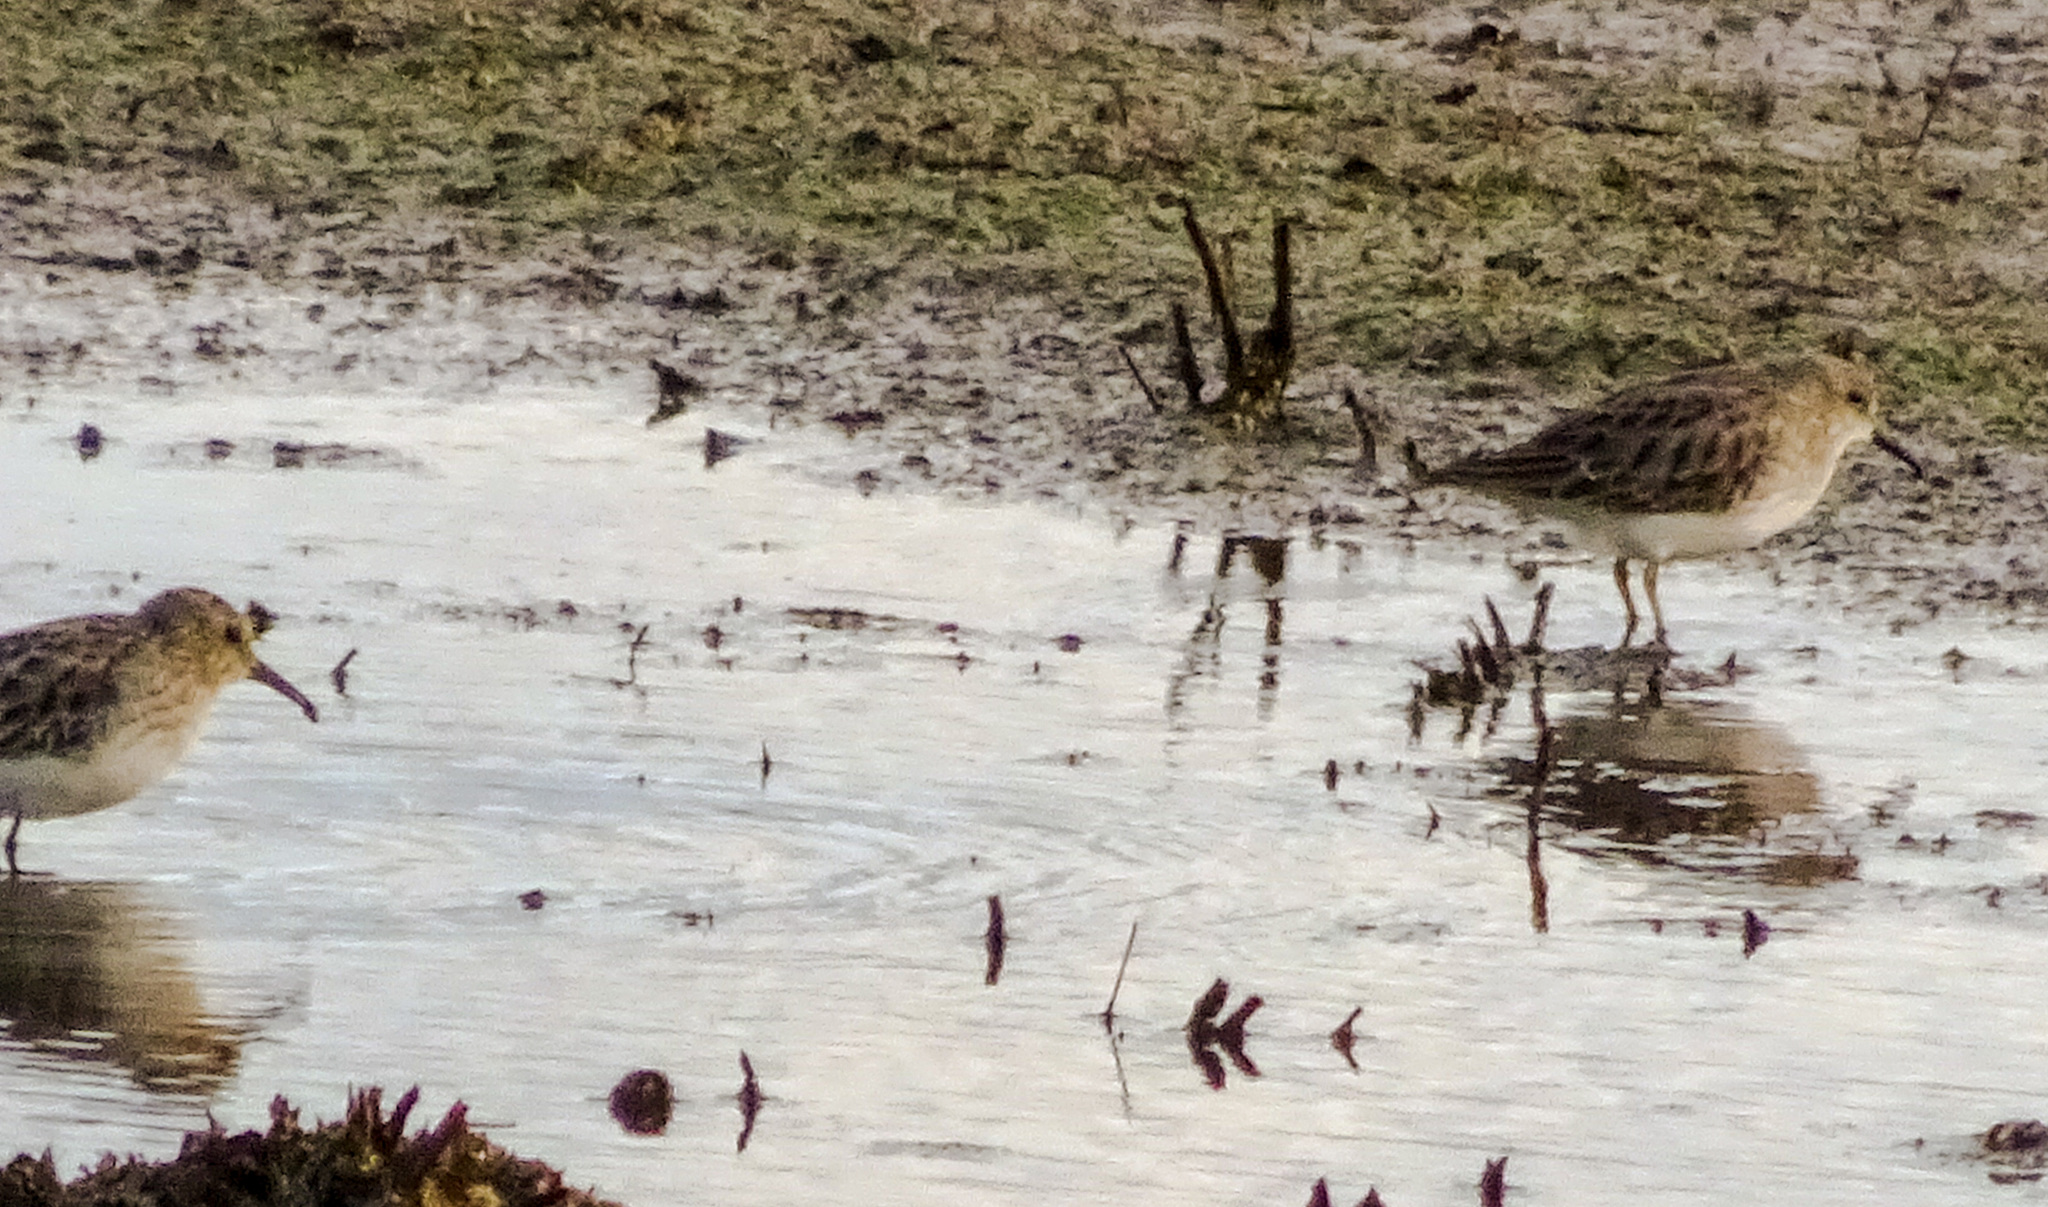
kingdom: Animalia
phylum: Chordata
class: Aves
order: Charadriiformes
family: Scolopacidae
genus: Calidris
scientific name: Calidris minutilla
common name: Least sandpiper
